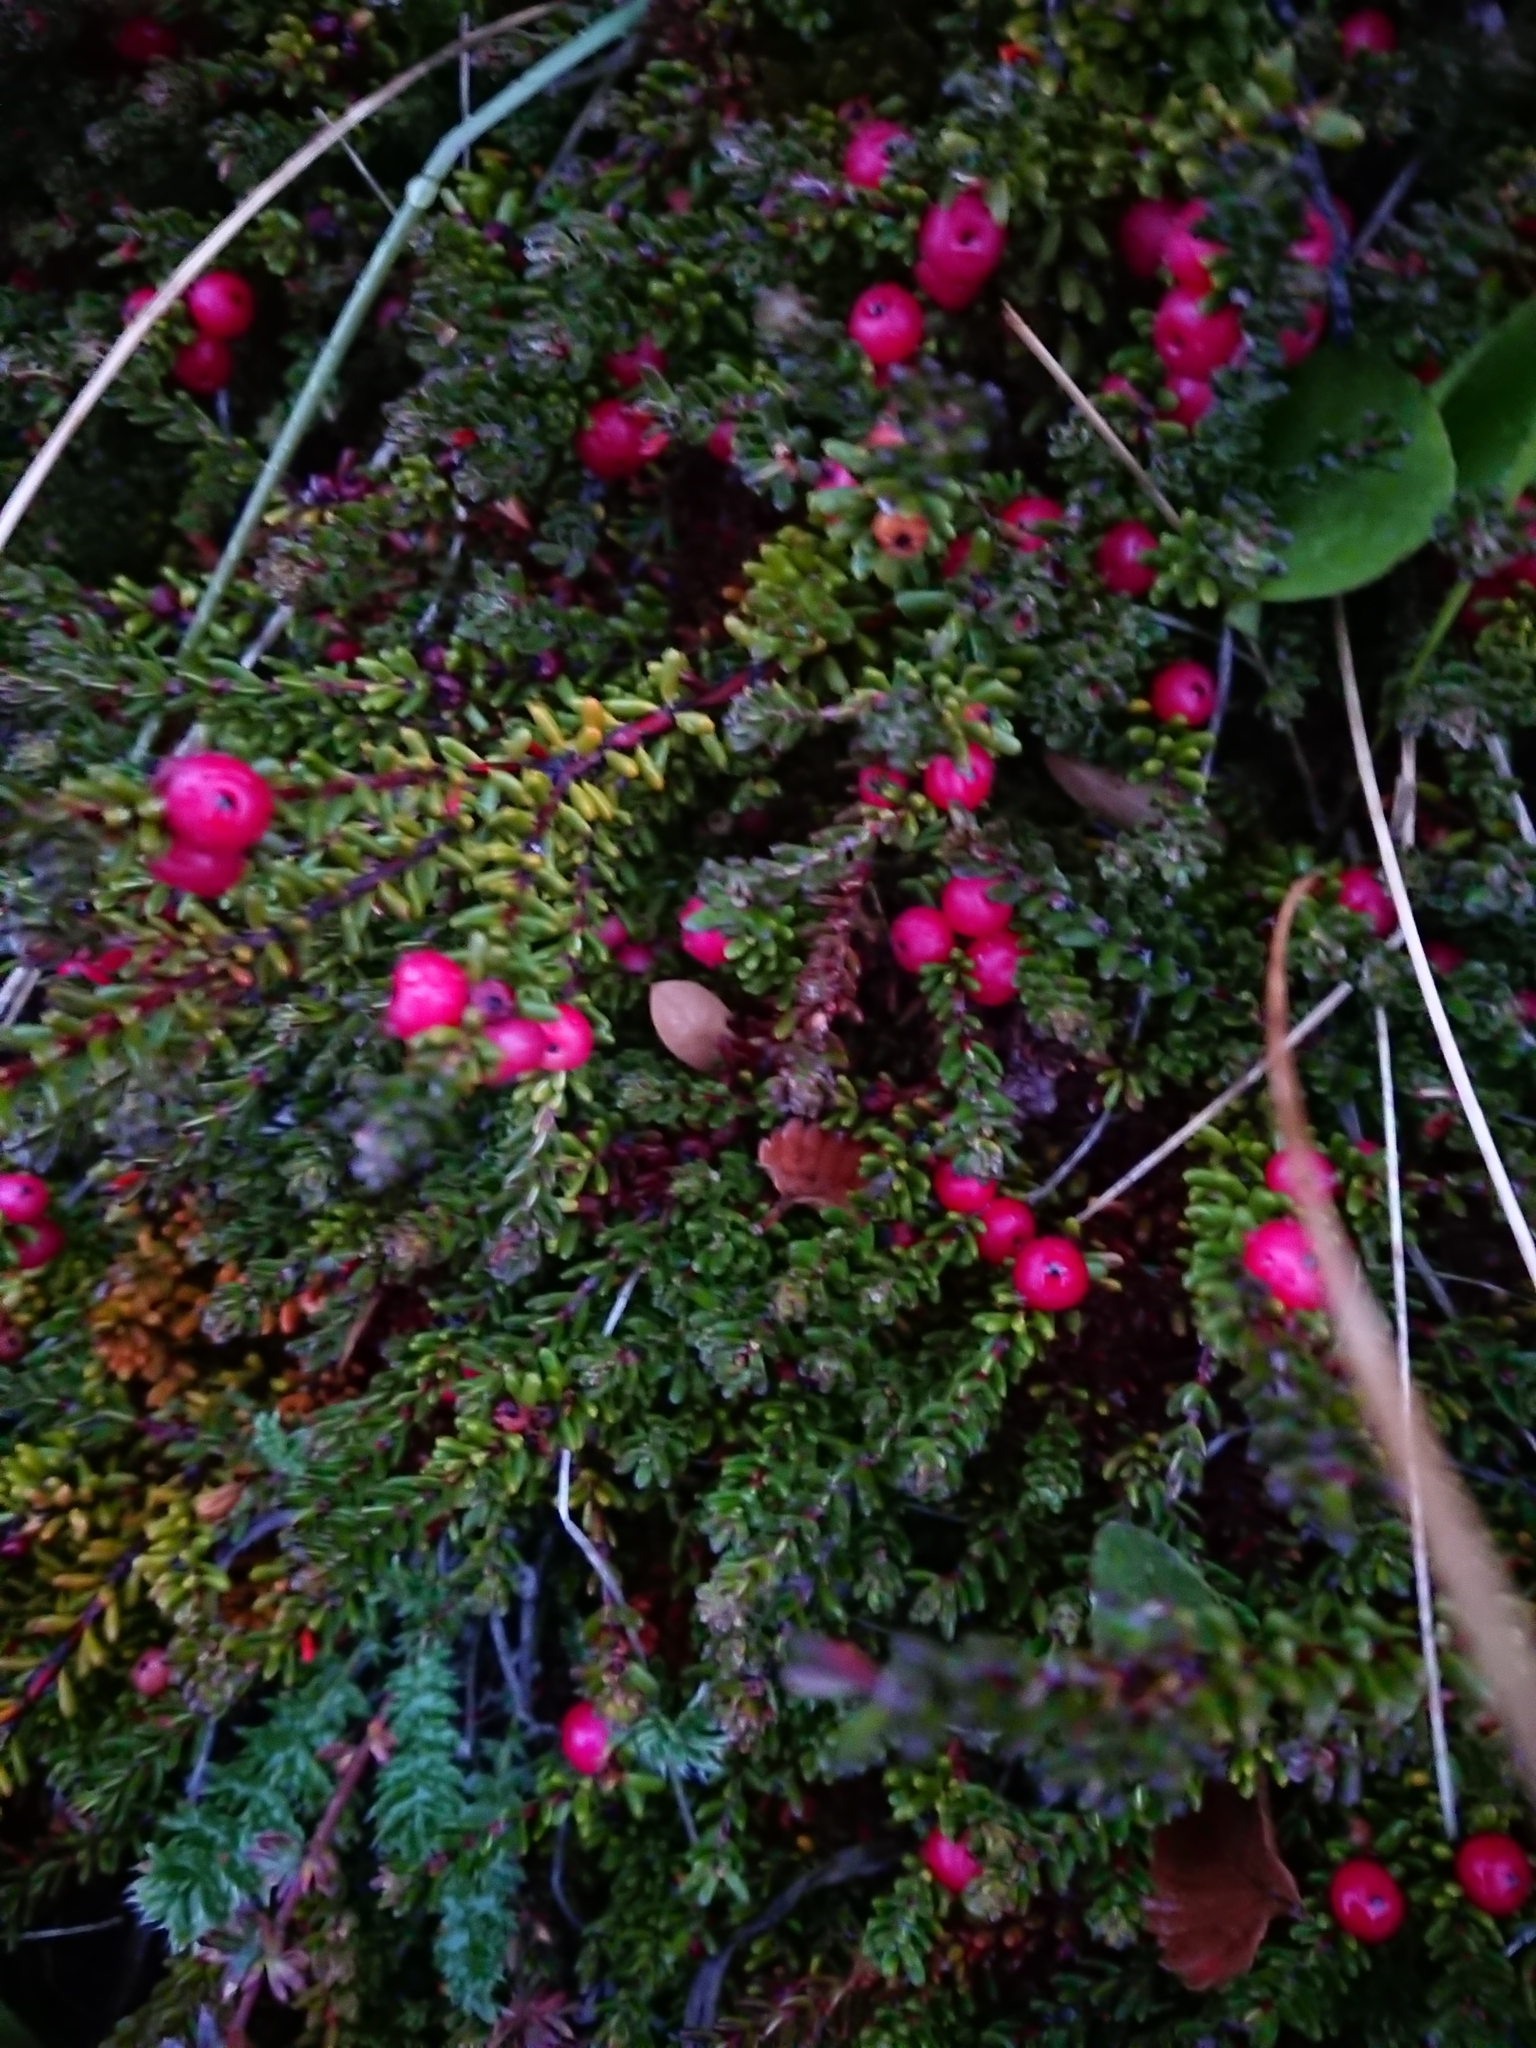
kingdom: Plantae
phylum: Tracheophyta
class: Magnoliopsida
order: Ericales
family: Ericaceae
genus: Empetrum
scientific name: Empetrum rubrum
